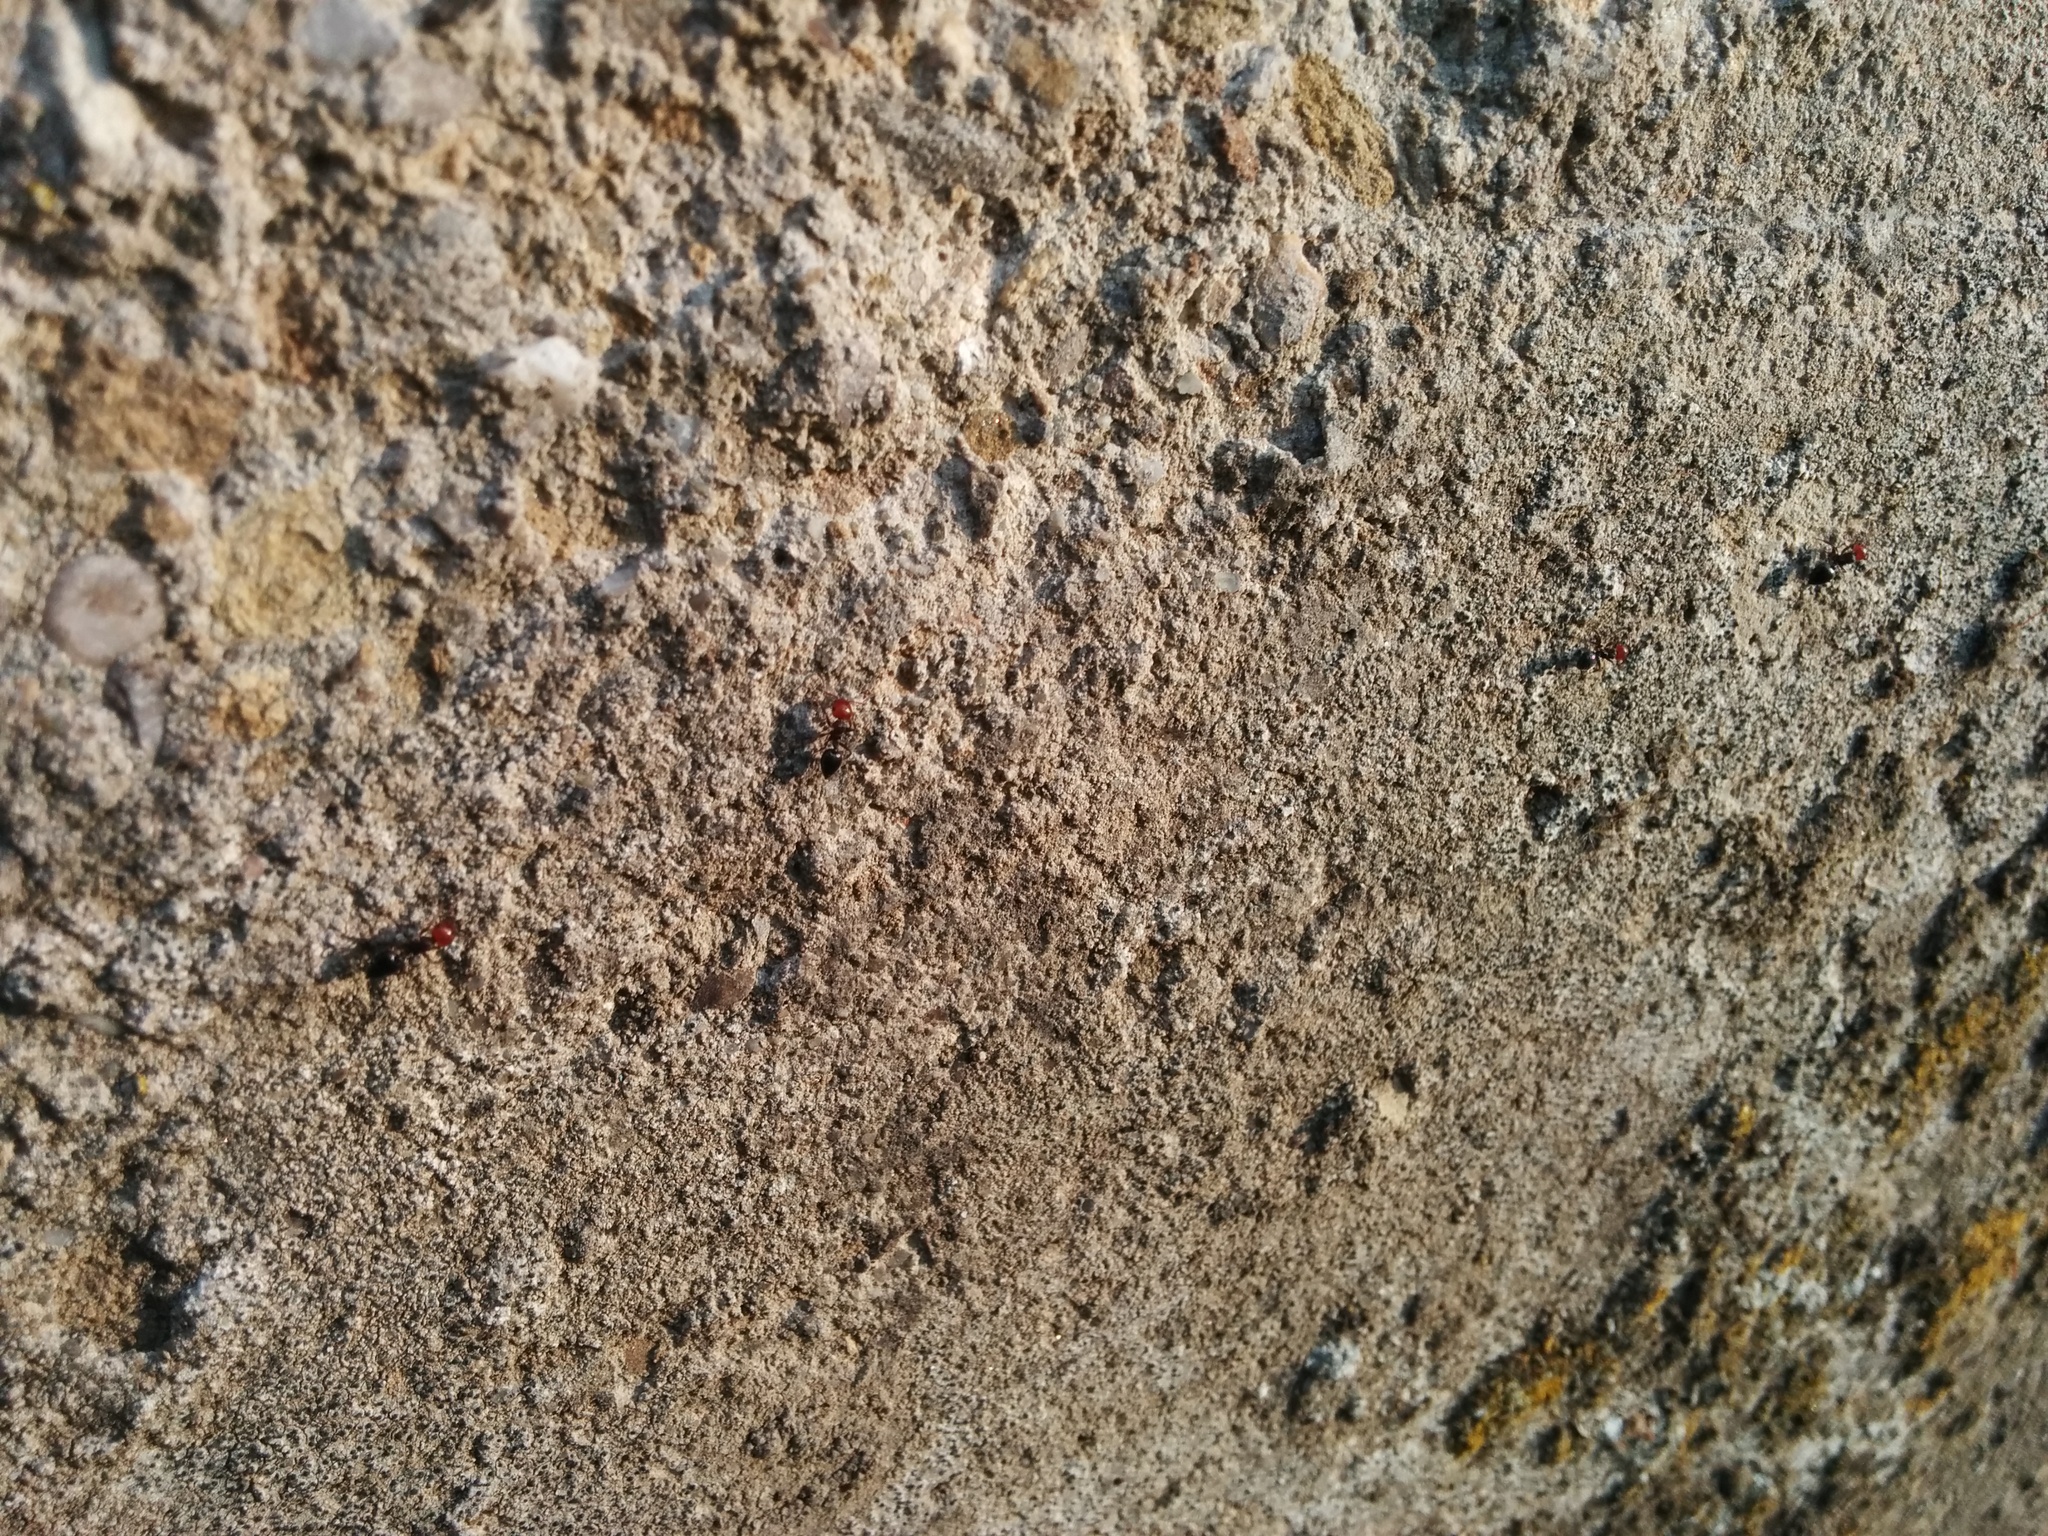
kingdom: Animalia
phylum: Arthropoda
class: Insecta
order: Hymenoptera
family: Formicidae
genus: Crematogaster
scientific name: Crematogaster scutellaris
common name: Fourmi du liège
